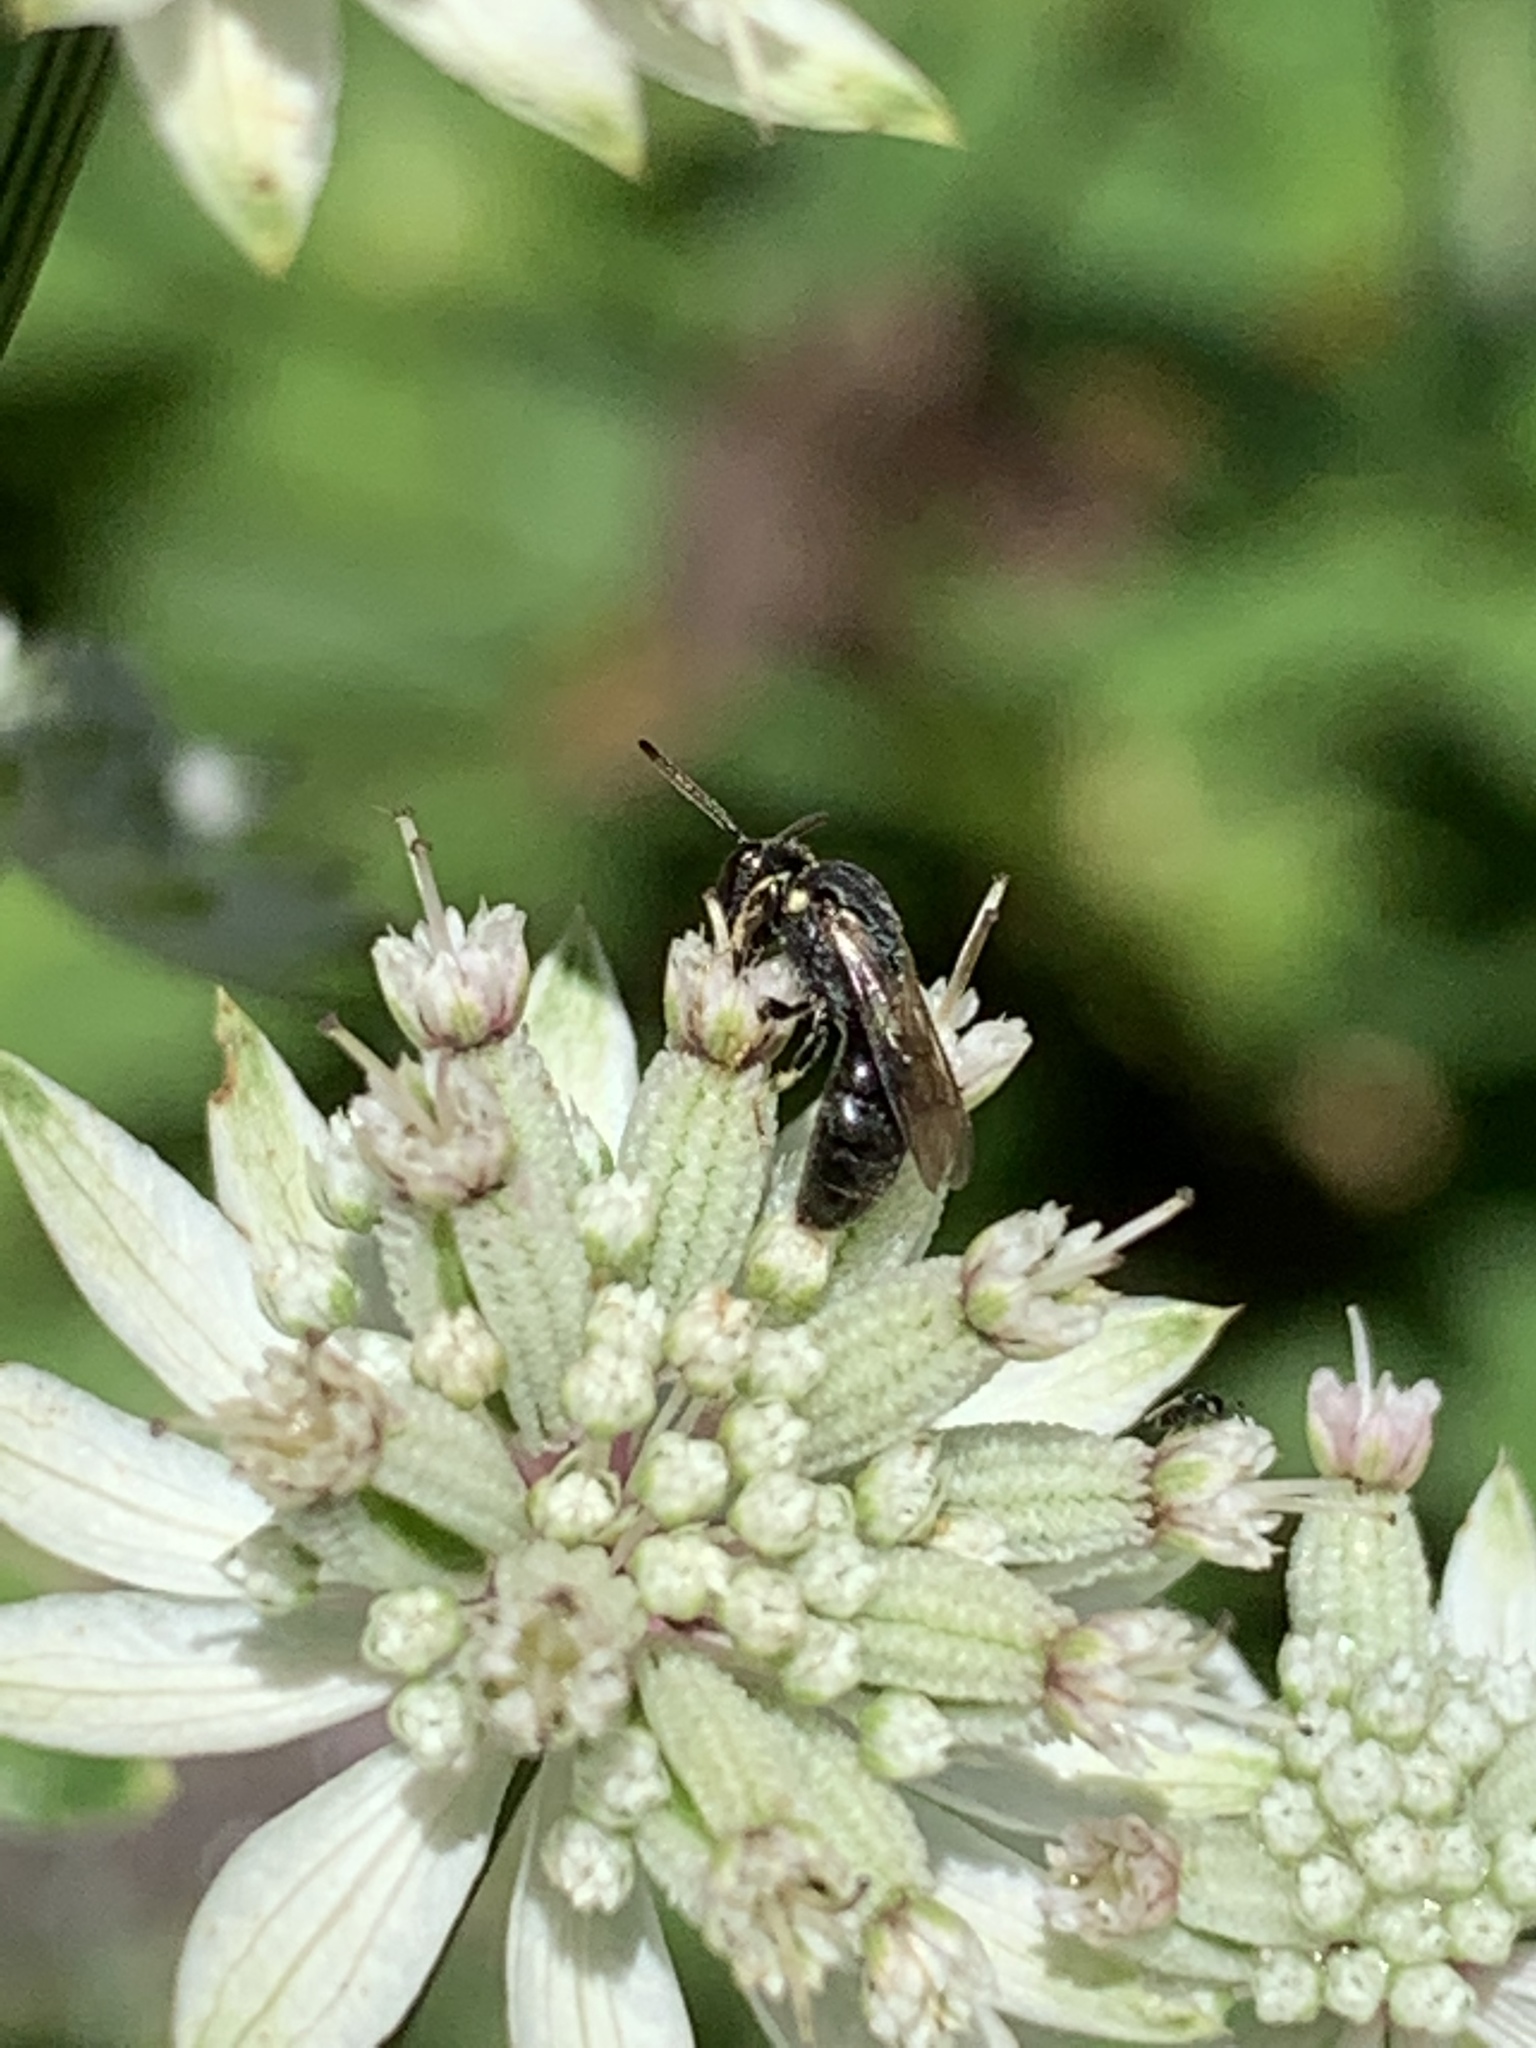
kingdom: Animalia
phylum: Arthropoda
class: Insecta
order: Hymenoptera
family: Colletidae
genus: Hylaeus
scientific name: Hylaeus modestus
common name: Yellow-faced bee
